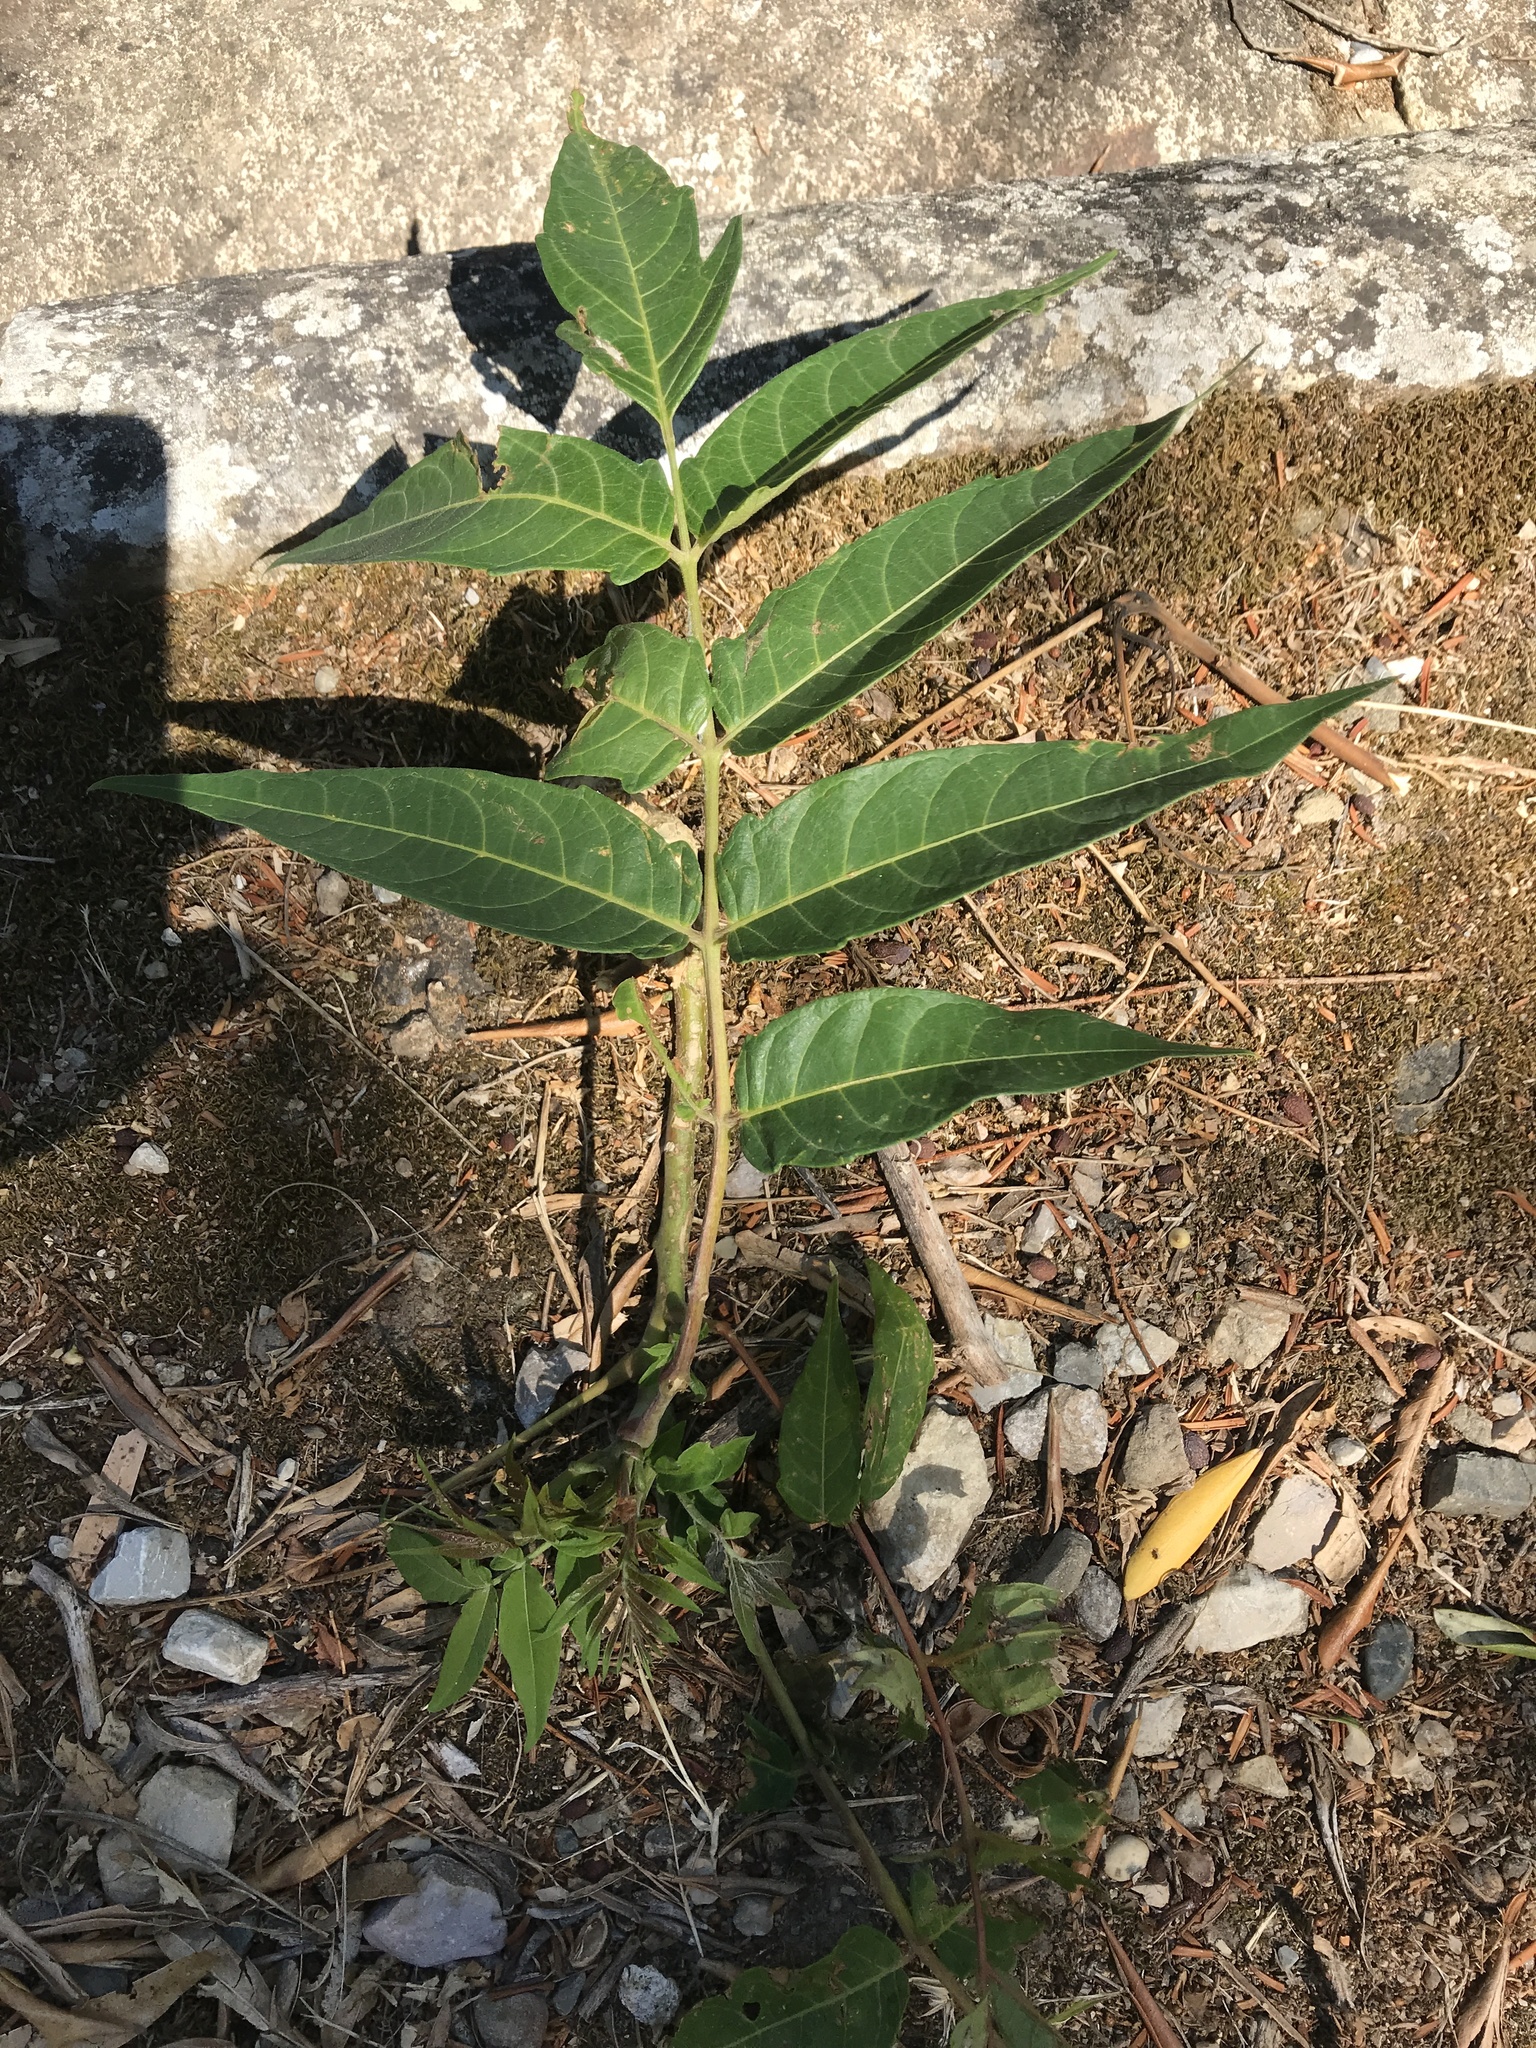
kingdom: Plantae
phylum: Tracheophyta
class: Magnoliopsida
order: Sapindales
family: Simaroubaceae
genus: Ailanthus
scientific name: Ailanthus altissima
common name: Tree-of-heaven
